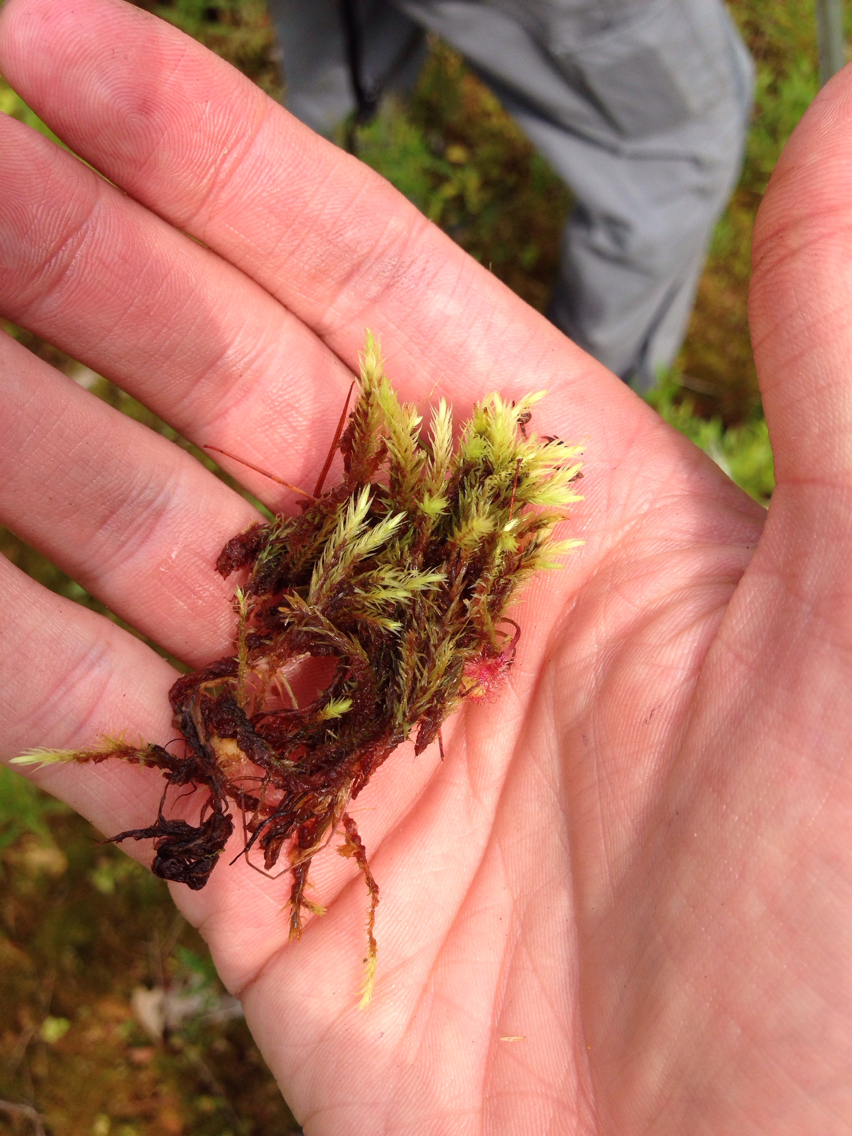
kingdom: Plantae
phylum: Bryophyta
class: Bryopsida
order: Aulacomniales
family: Aulacomniaceae
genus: Aulacomnium
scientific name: Aulacomnium palustre
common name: Bog groove-moss
